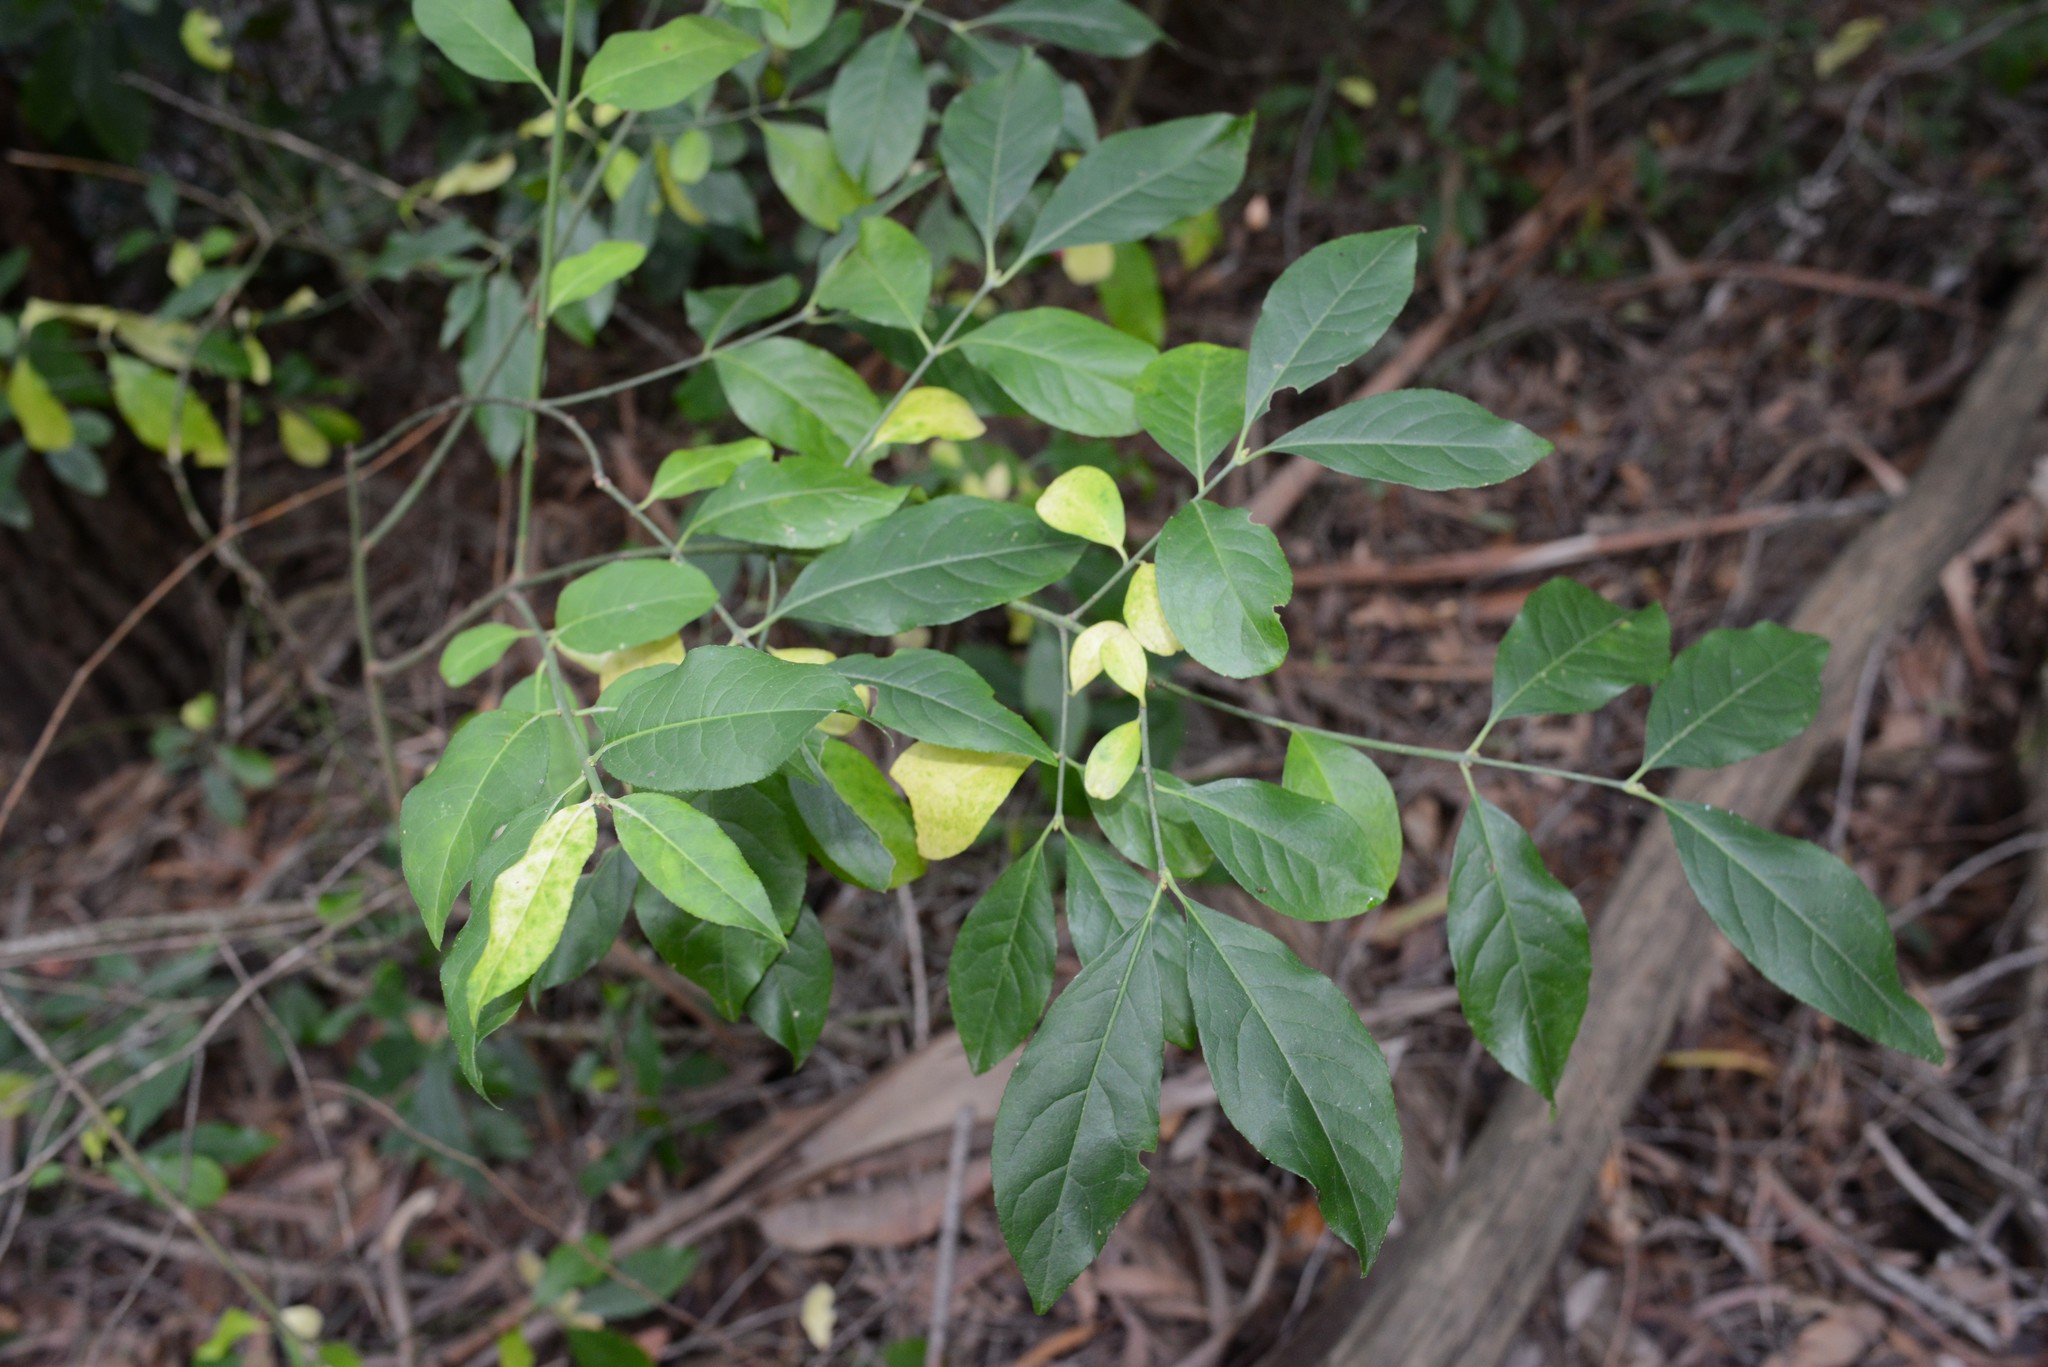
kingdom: Plantae
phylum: Tracheophyta
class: Magnoliopsida
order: Celastrales
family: Celastraceae
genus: Euonymus
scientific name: Euonymus europaeus
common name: Spindle
